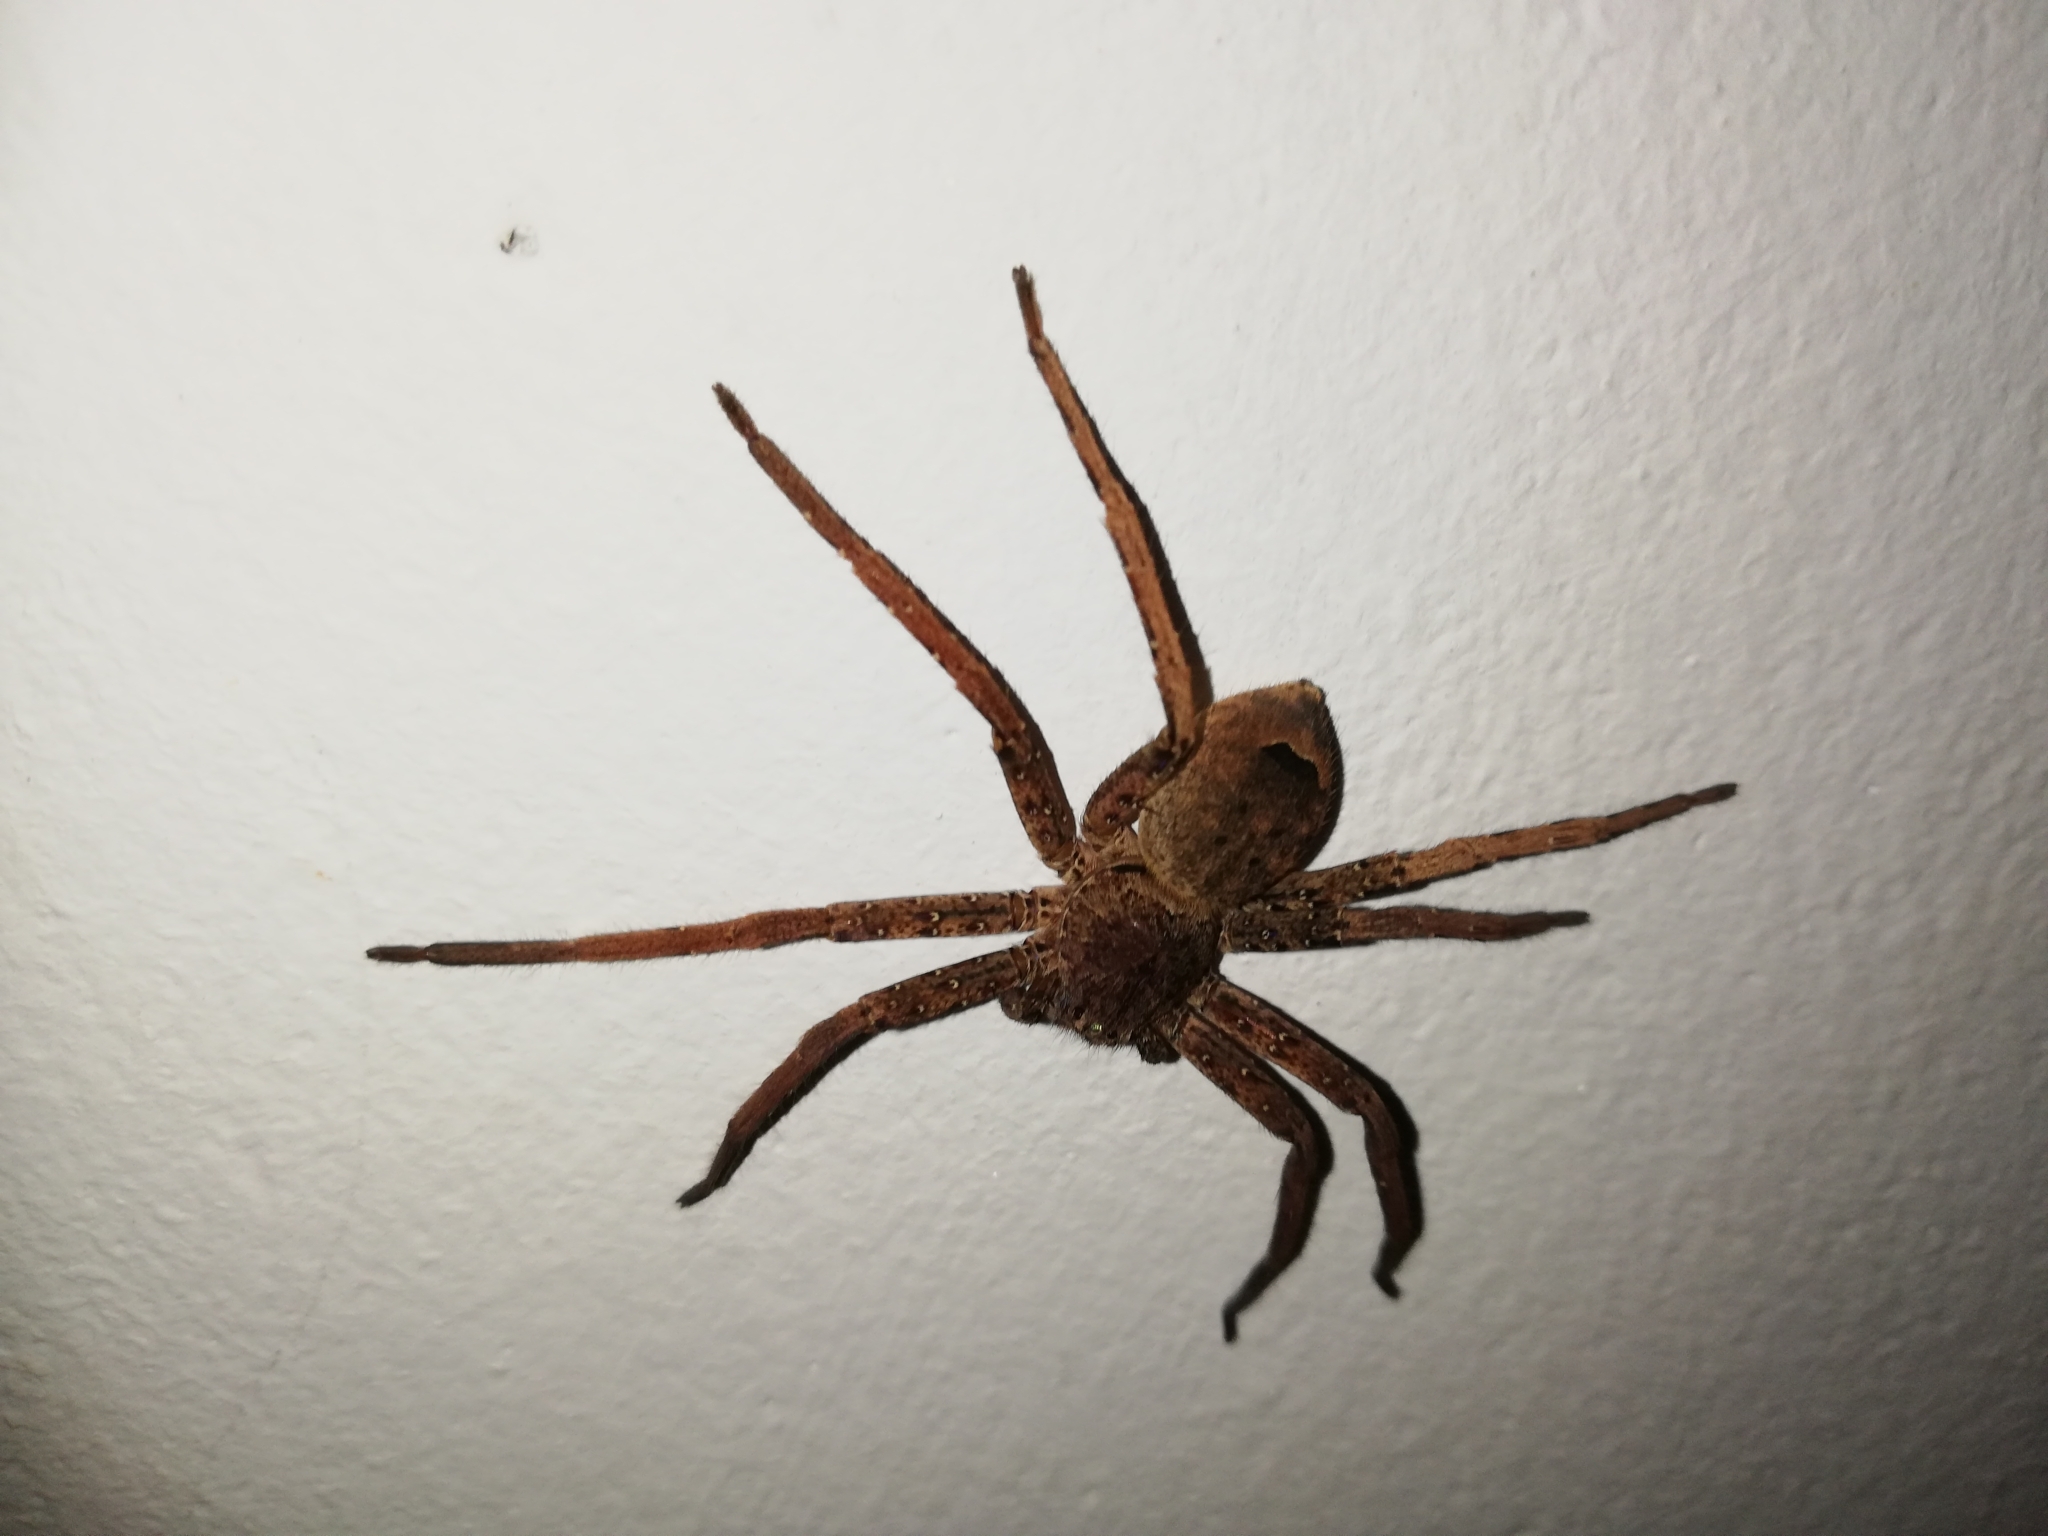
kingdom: Animalia
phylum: Arthropoda
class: Arachnida
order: Araneae
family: Sparassidae
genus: Heteropoda
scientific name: Heteropoda venatoria
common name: Huntsman spider
